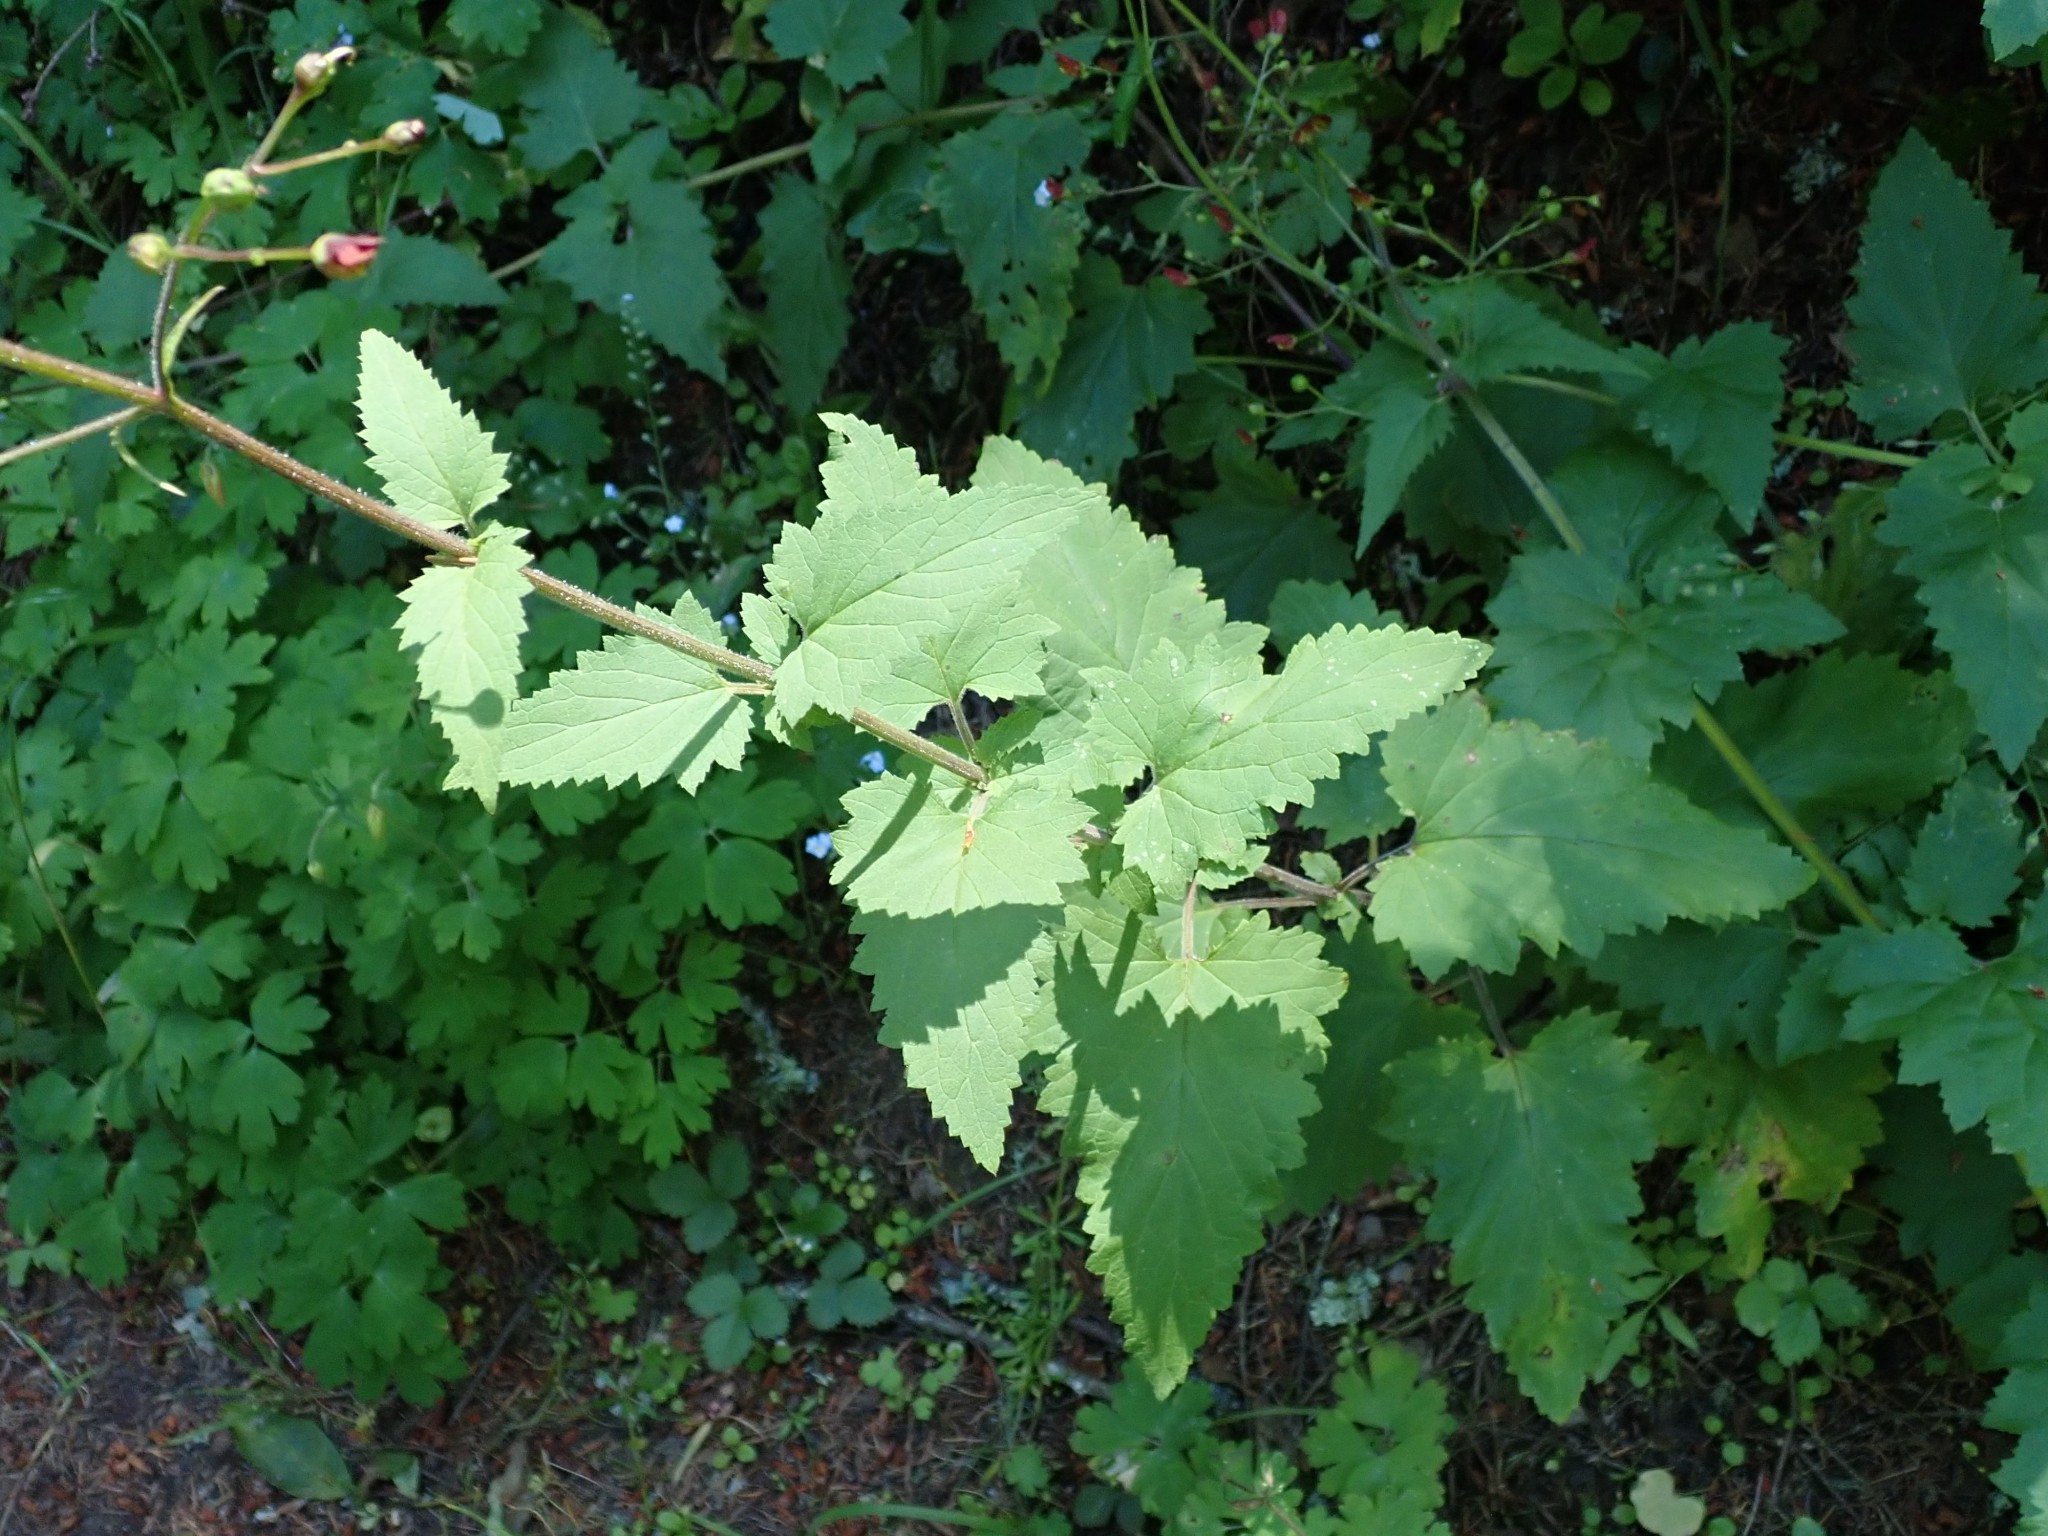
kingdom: Plantae
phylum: Tracheophyta
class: Magnoliopsida
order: Lamiales
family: Scrophulariaceae
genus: Scrophularia
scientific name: Scrophularia californica
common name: California figwort
